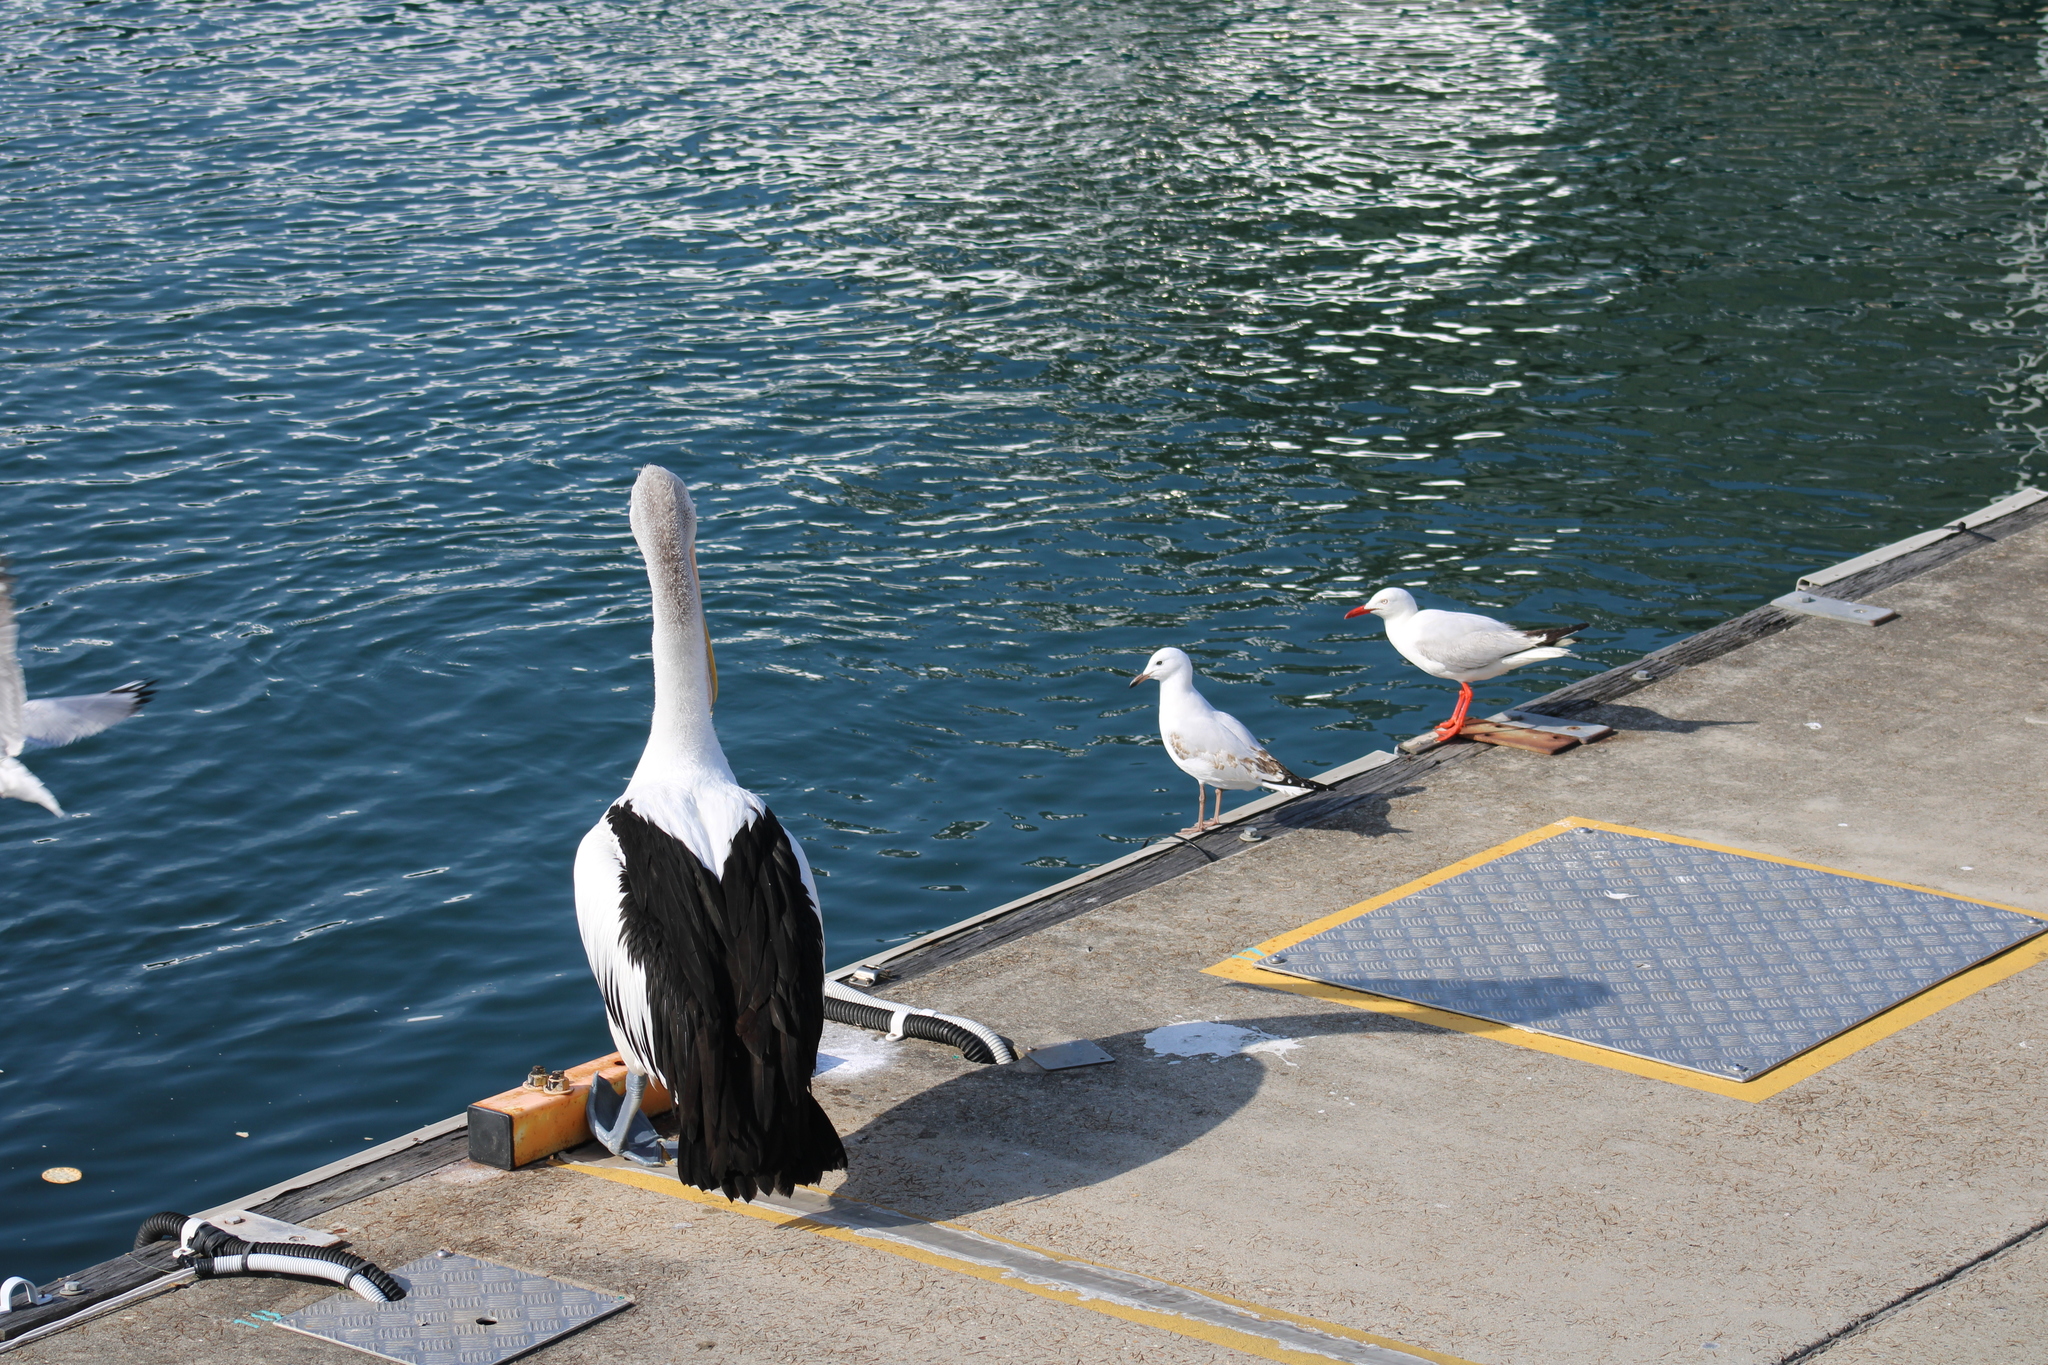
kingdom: Animalia
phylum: Chordata
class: Aves
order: Charadriiformes
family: Laridae
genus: Chroicocephalus
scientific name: Chroicocephalus novaehollandiae
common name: Silver gull
